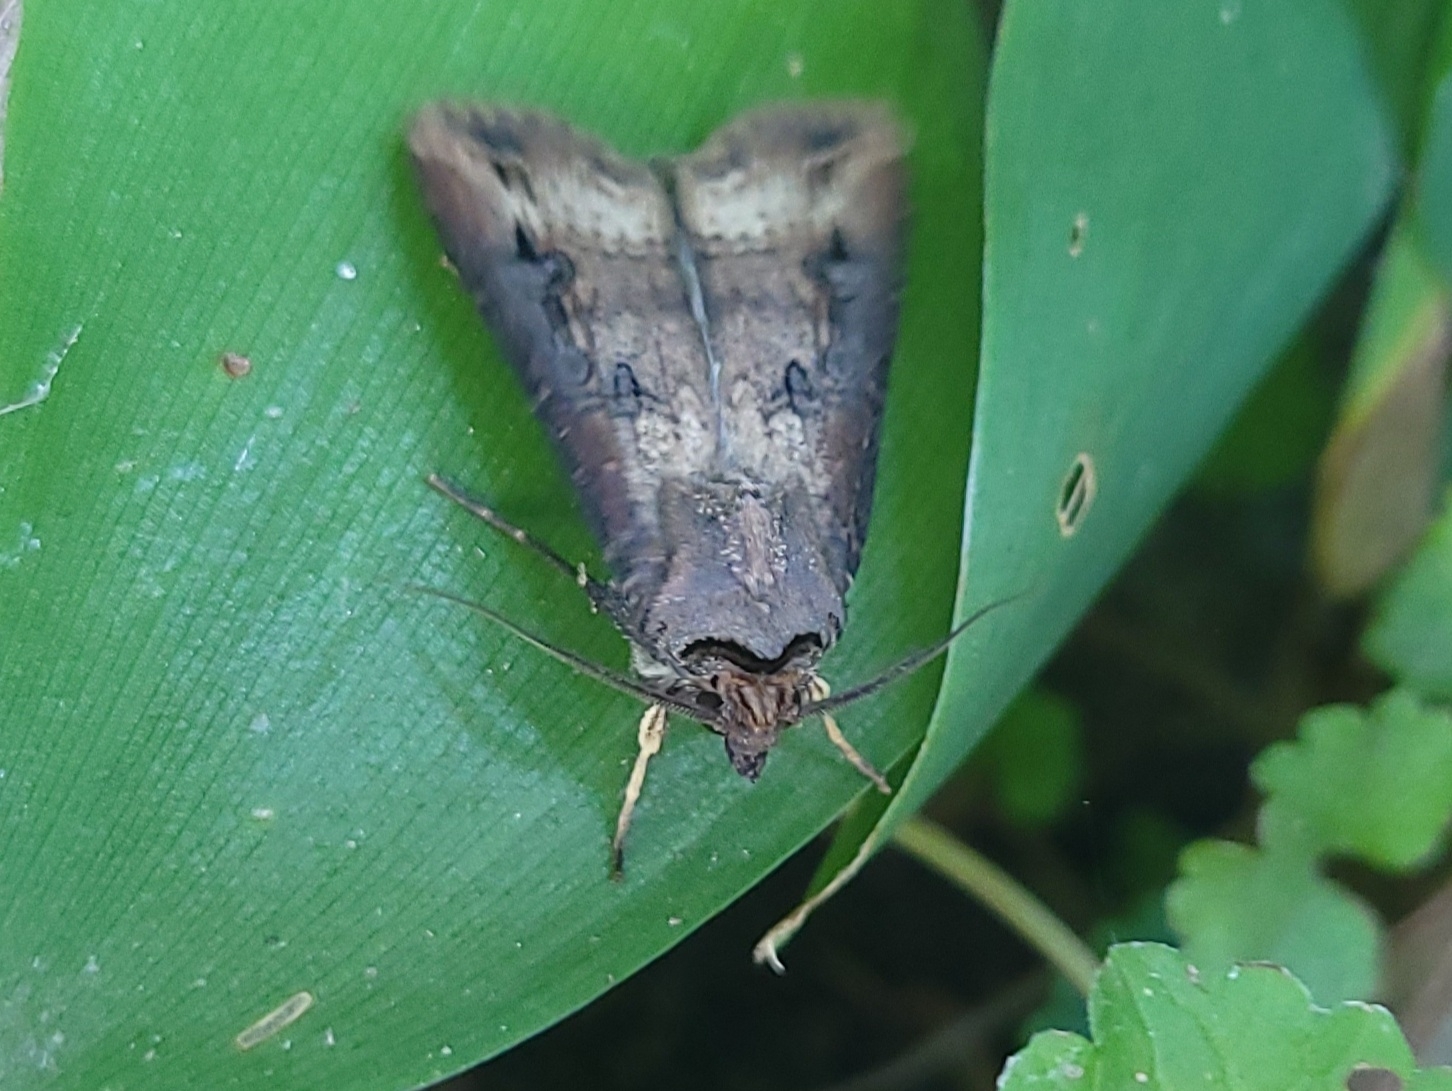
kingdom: Animalia
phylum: Arthropoda
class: Insecta
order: Lepidoptera
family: Noctuidae
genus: Agrotis
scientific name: Agrotis ipsilon
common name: Dark sword-grass
